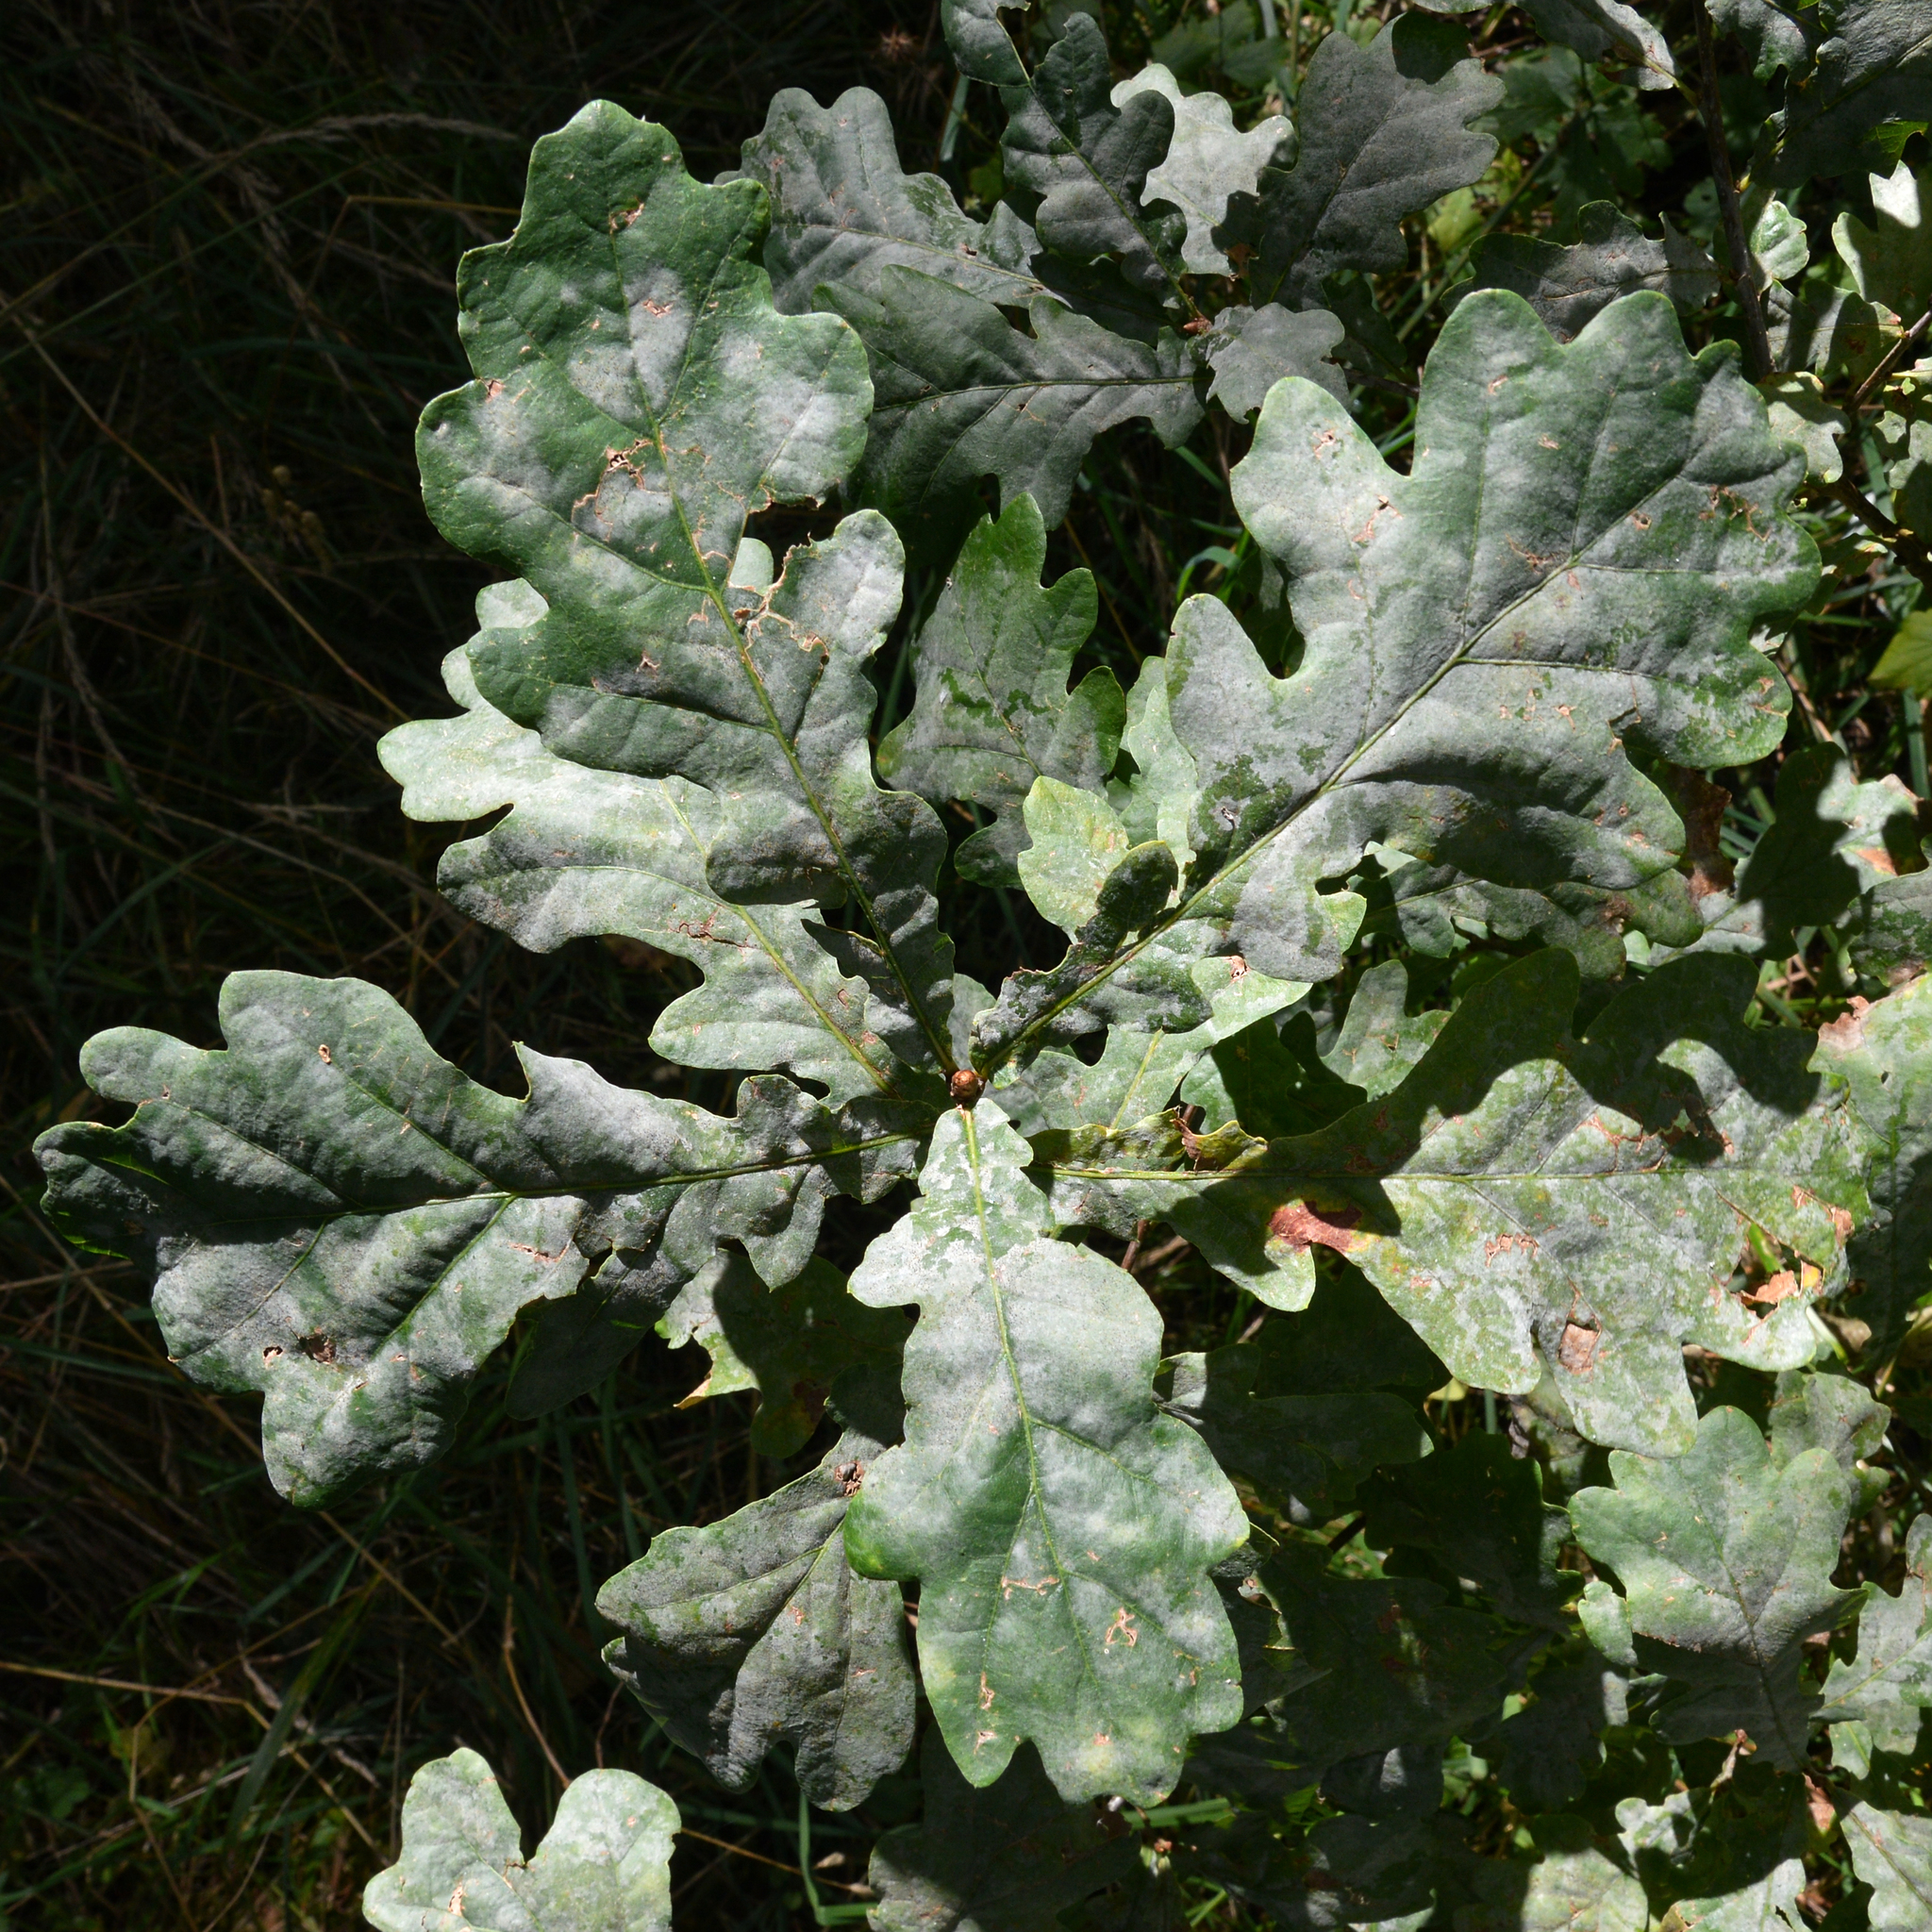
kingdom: Plantae
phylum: Tracheophyta
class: Magnoliopsida
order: Fagales
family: Fagaceae
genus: Quercus
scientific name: Quercus robur
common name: Pedunculate oak
